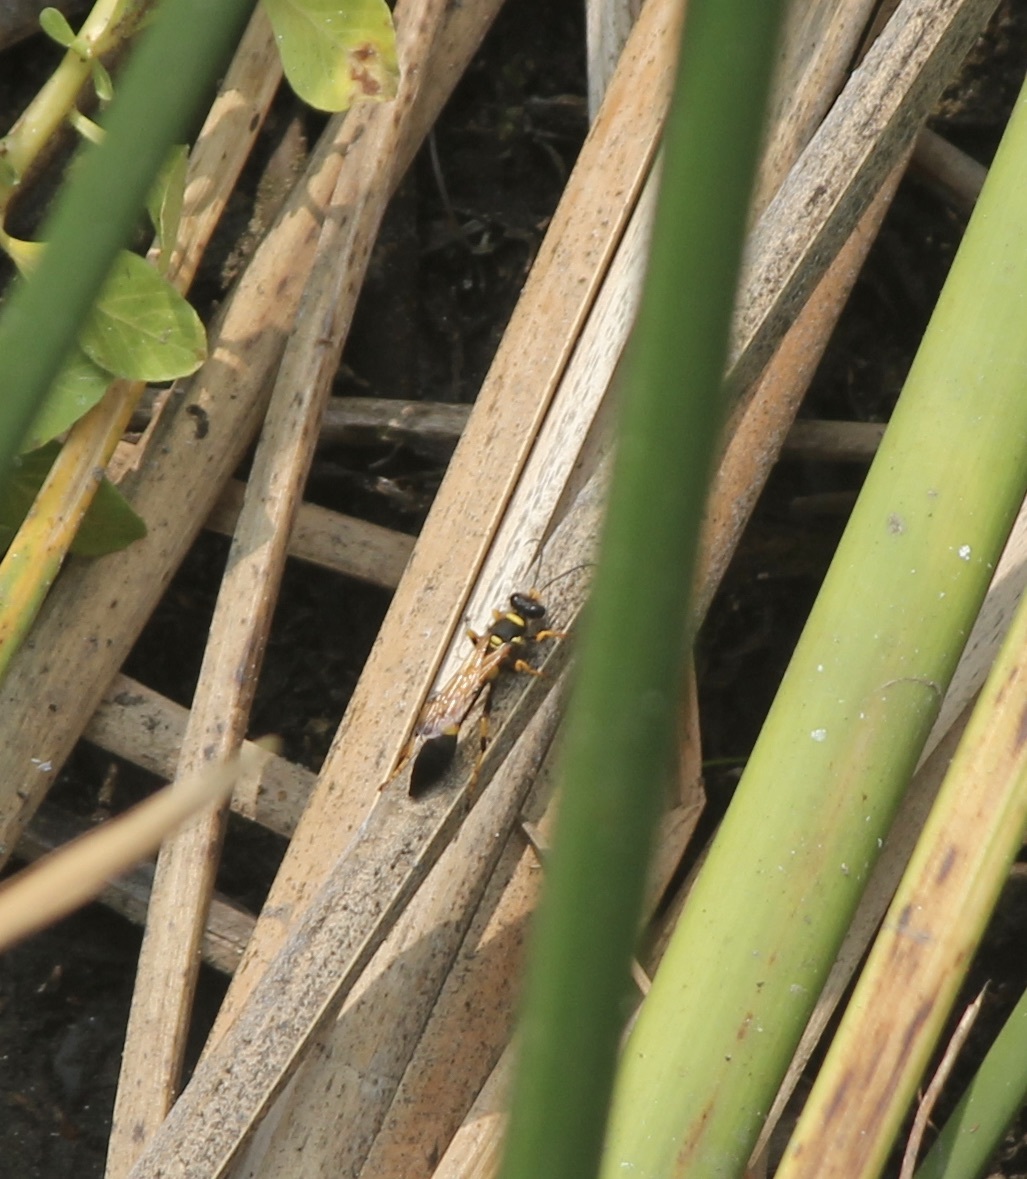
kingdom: Animalia
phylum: Arthropoda
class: Insecta
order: Hymenoptera
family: Sphecidae
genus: Sceliphron
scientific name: Sceliphron caementarium
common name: Mud dauber
